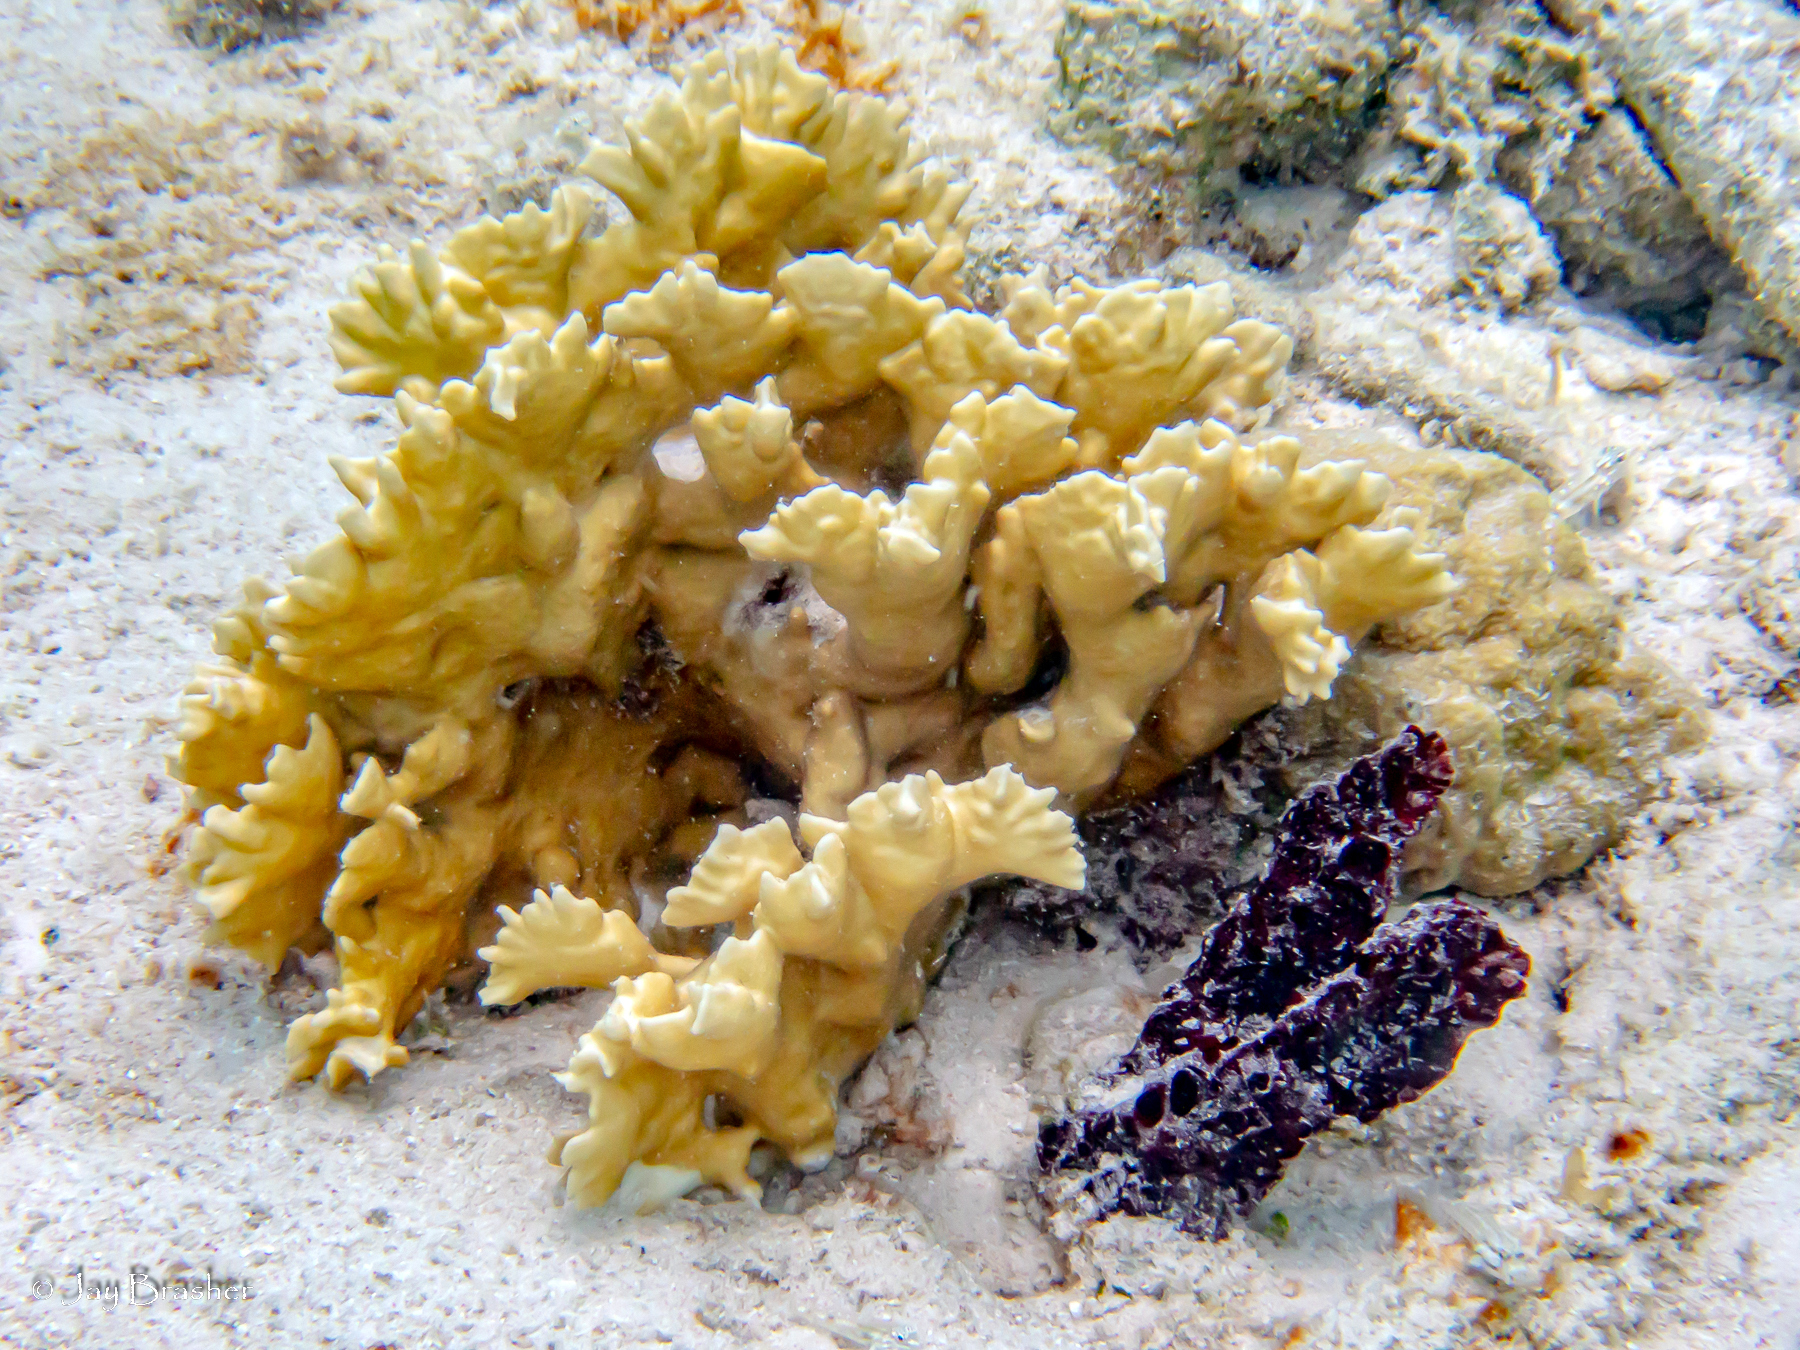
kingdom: Animalia
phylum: Cnidaria
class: Hydrozoa
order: Anthoathecata
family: Milleporidae
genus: Millepora
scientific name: Millepora alcicornis
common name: Branching fire coral
